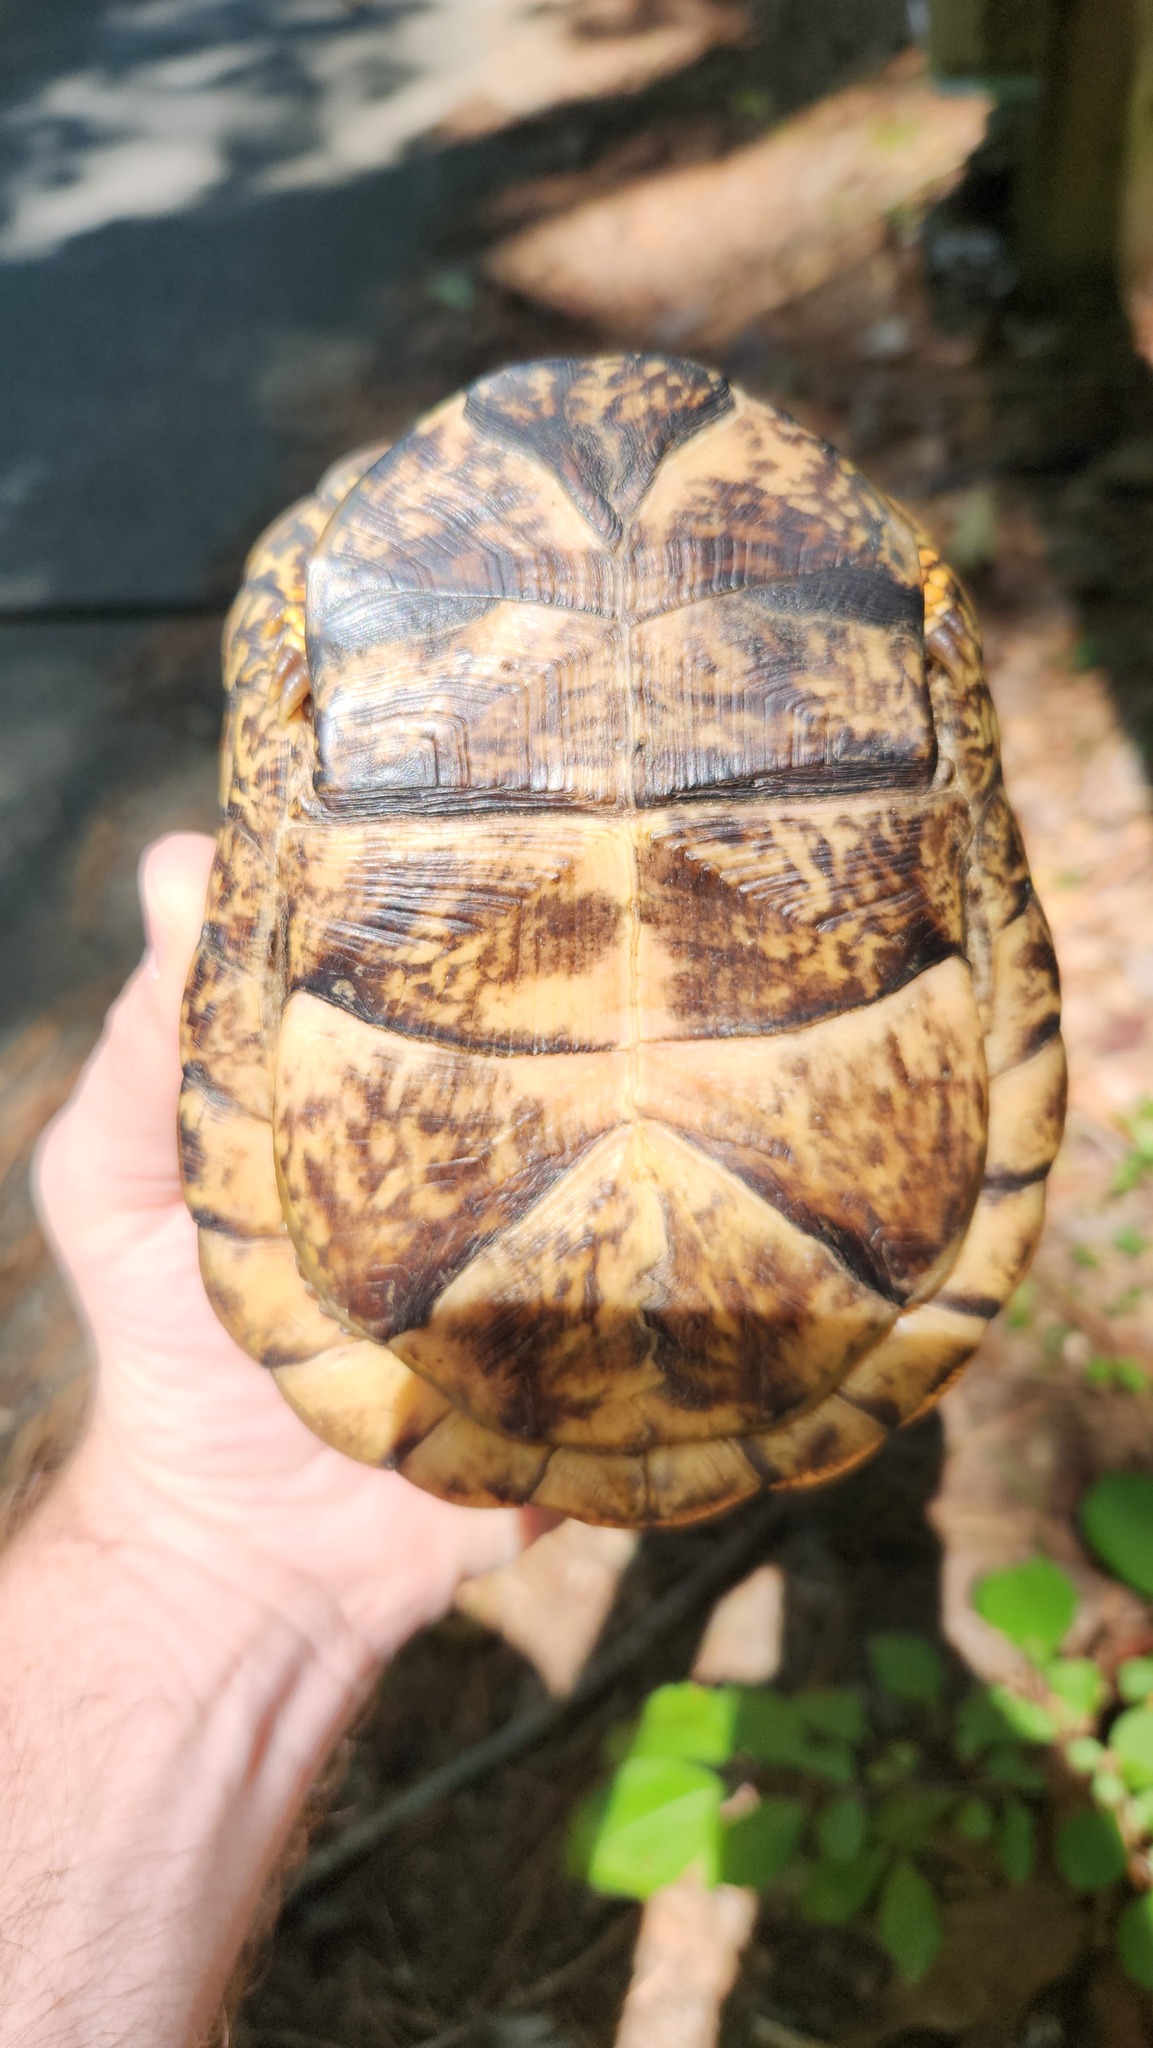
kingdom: Animalia
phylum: Chordata
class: Testudines
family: Emydidae
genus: Terrapene
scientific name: Terrapene carolina
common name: Common box turtle
